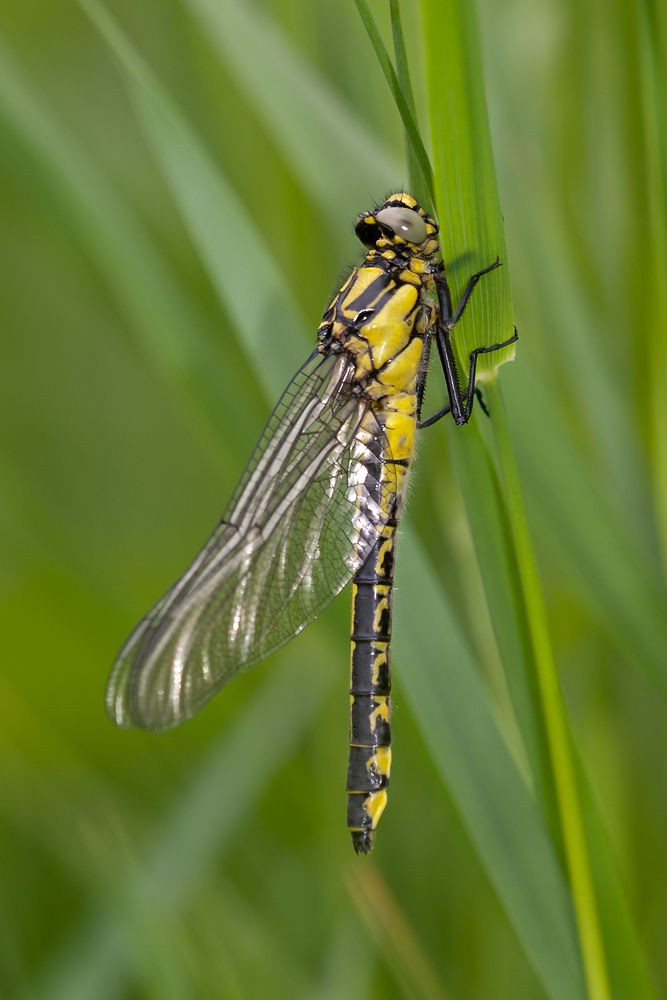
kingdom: Animalia
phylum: Arthropoda
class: Insecta
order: Odonata
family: Gomphidae
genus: Gomphus
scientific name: Gomphus vulgatissimus
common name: Club-tailed dragonfly
